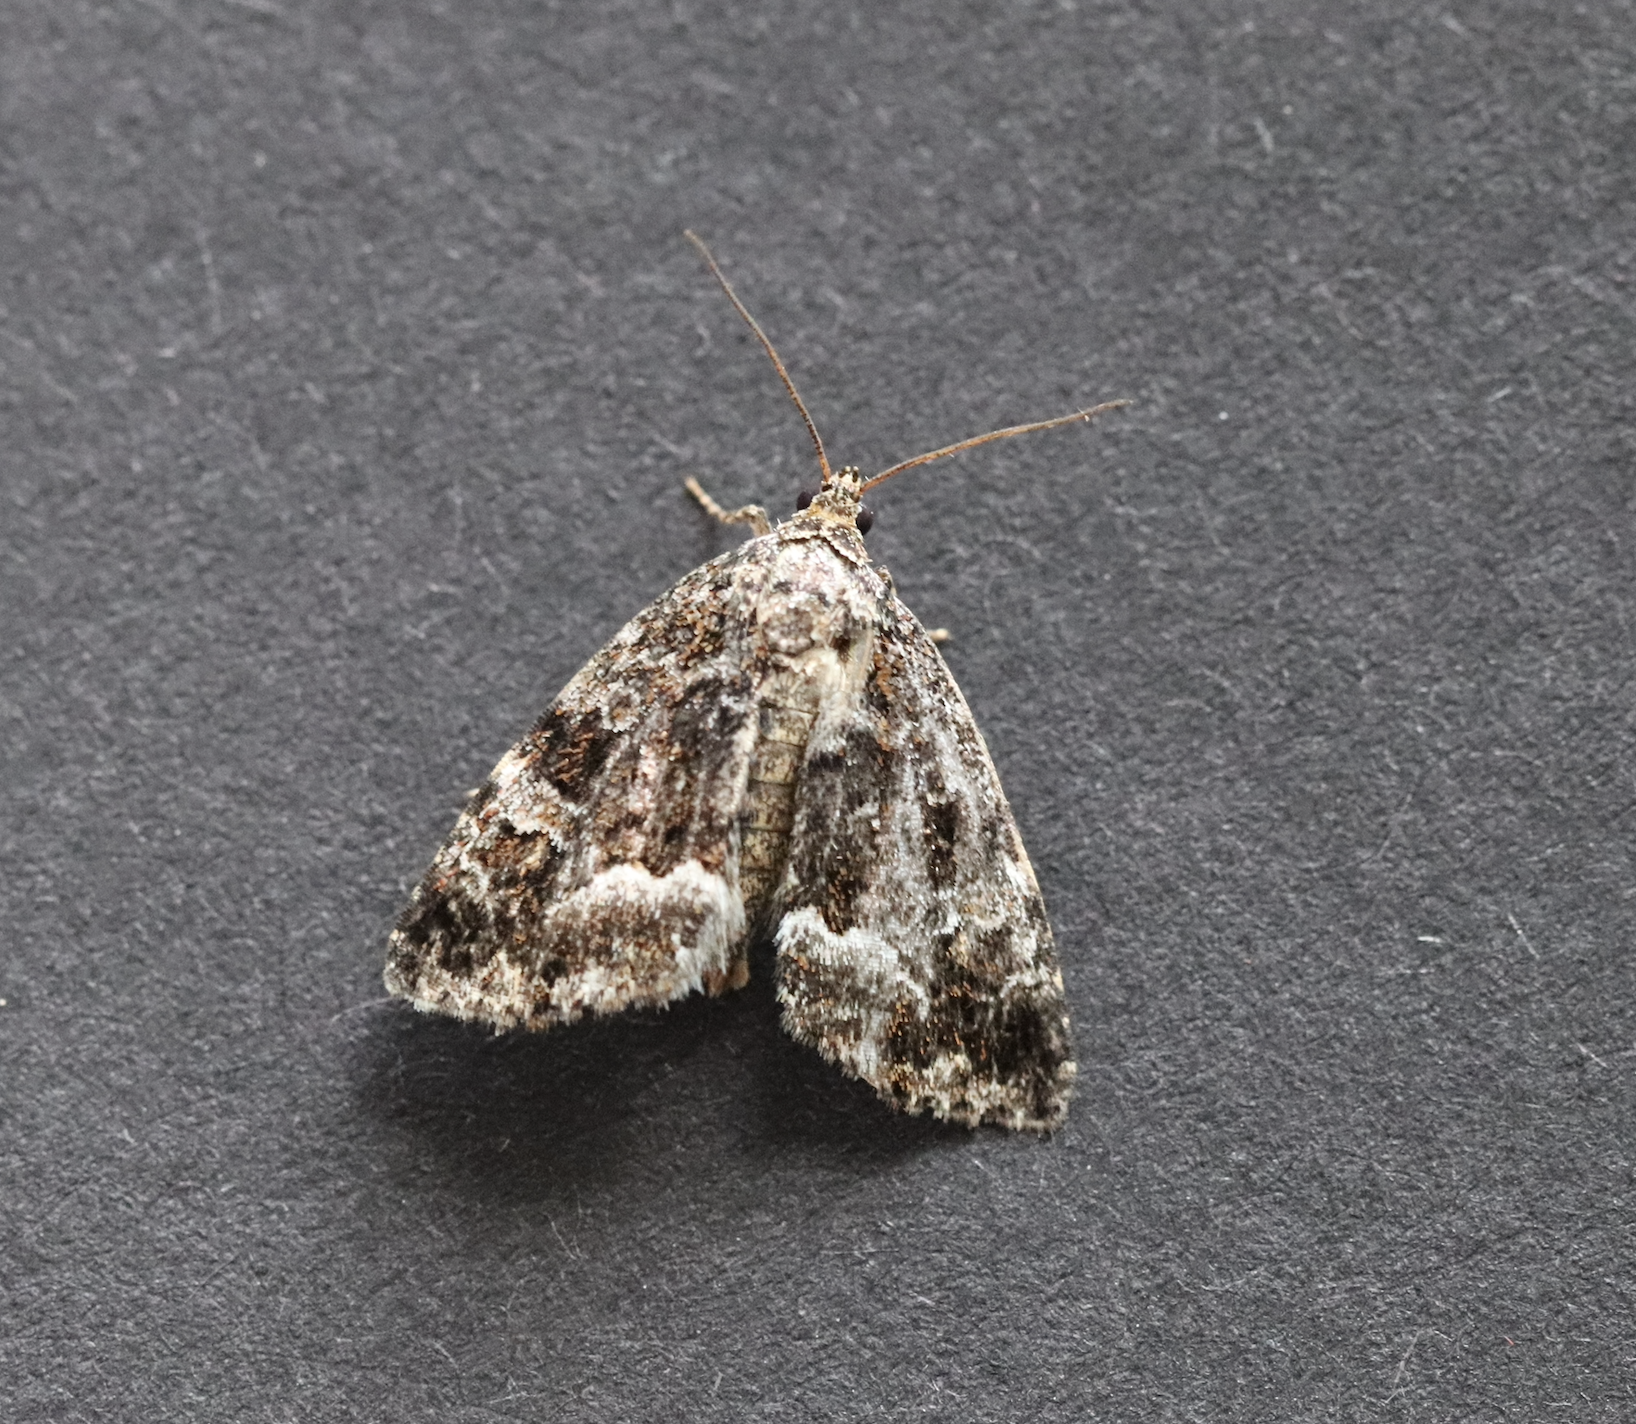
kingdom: Animalia
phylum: Arthropoda
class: Insecta
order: Lepidoptera
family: Noctuidae
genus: Deltote
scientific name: Deltote pygarga
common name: Marbled white spot
